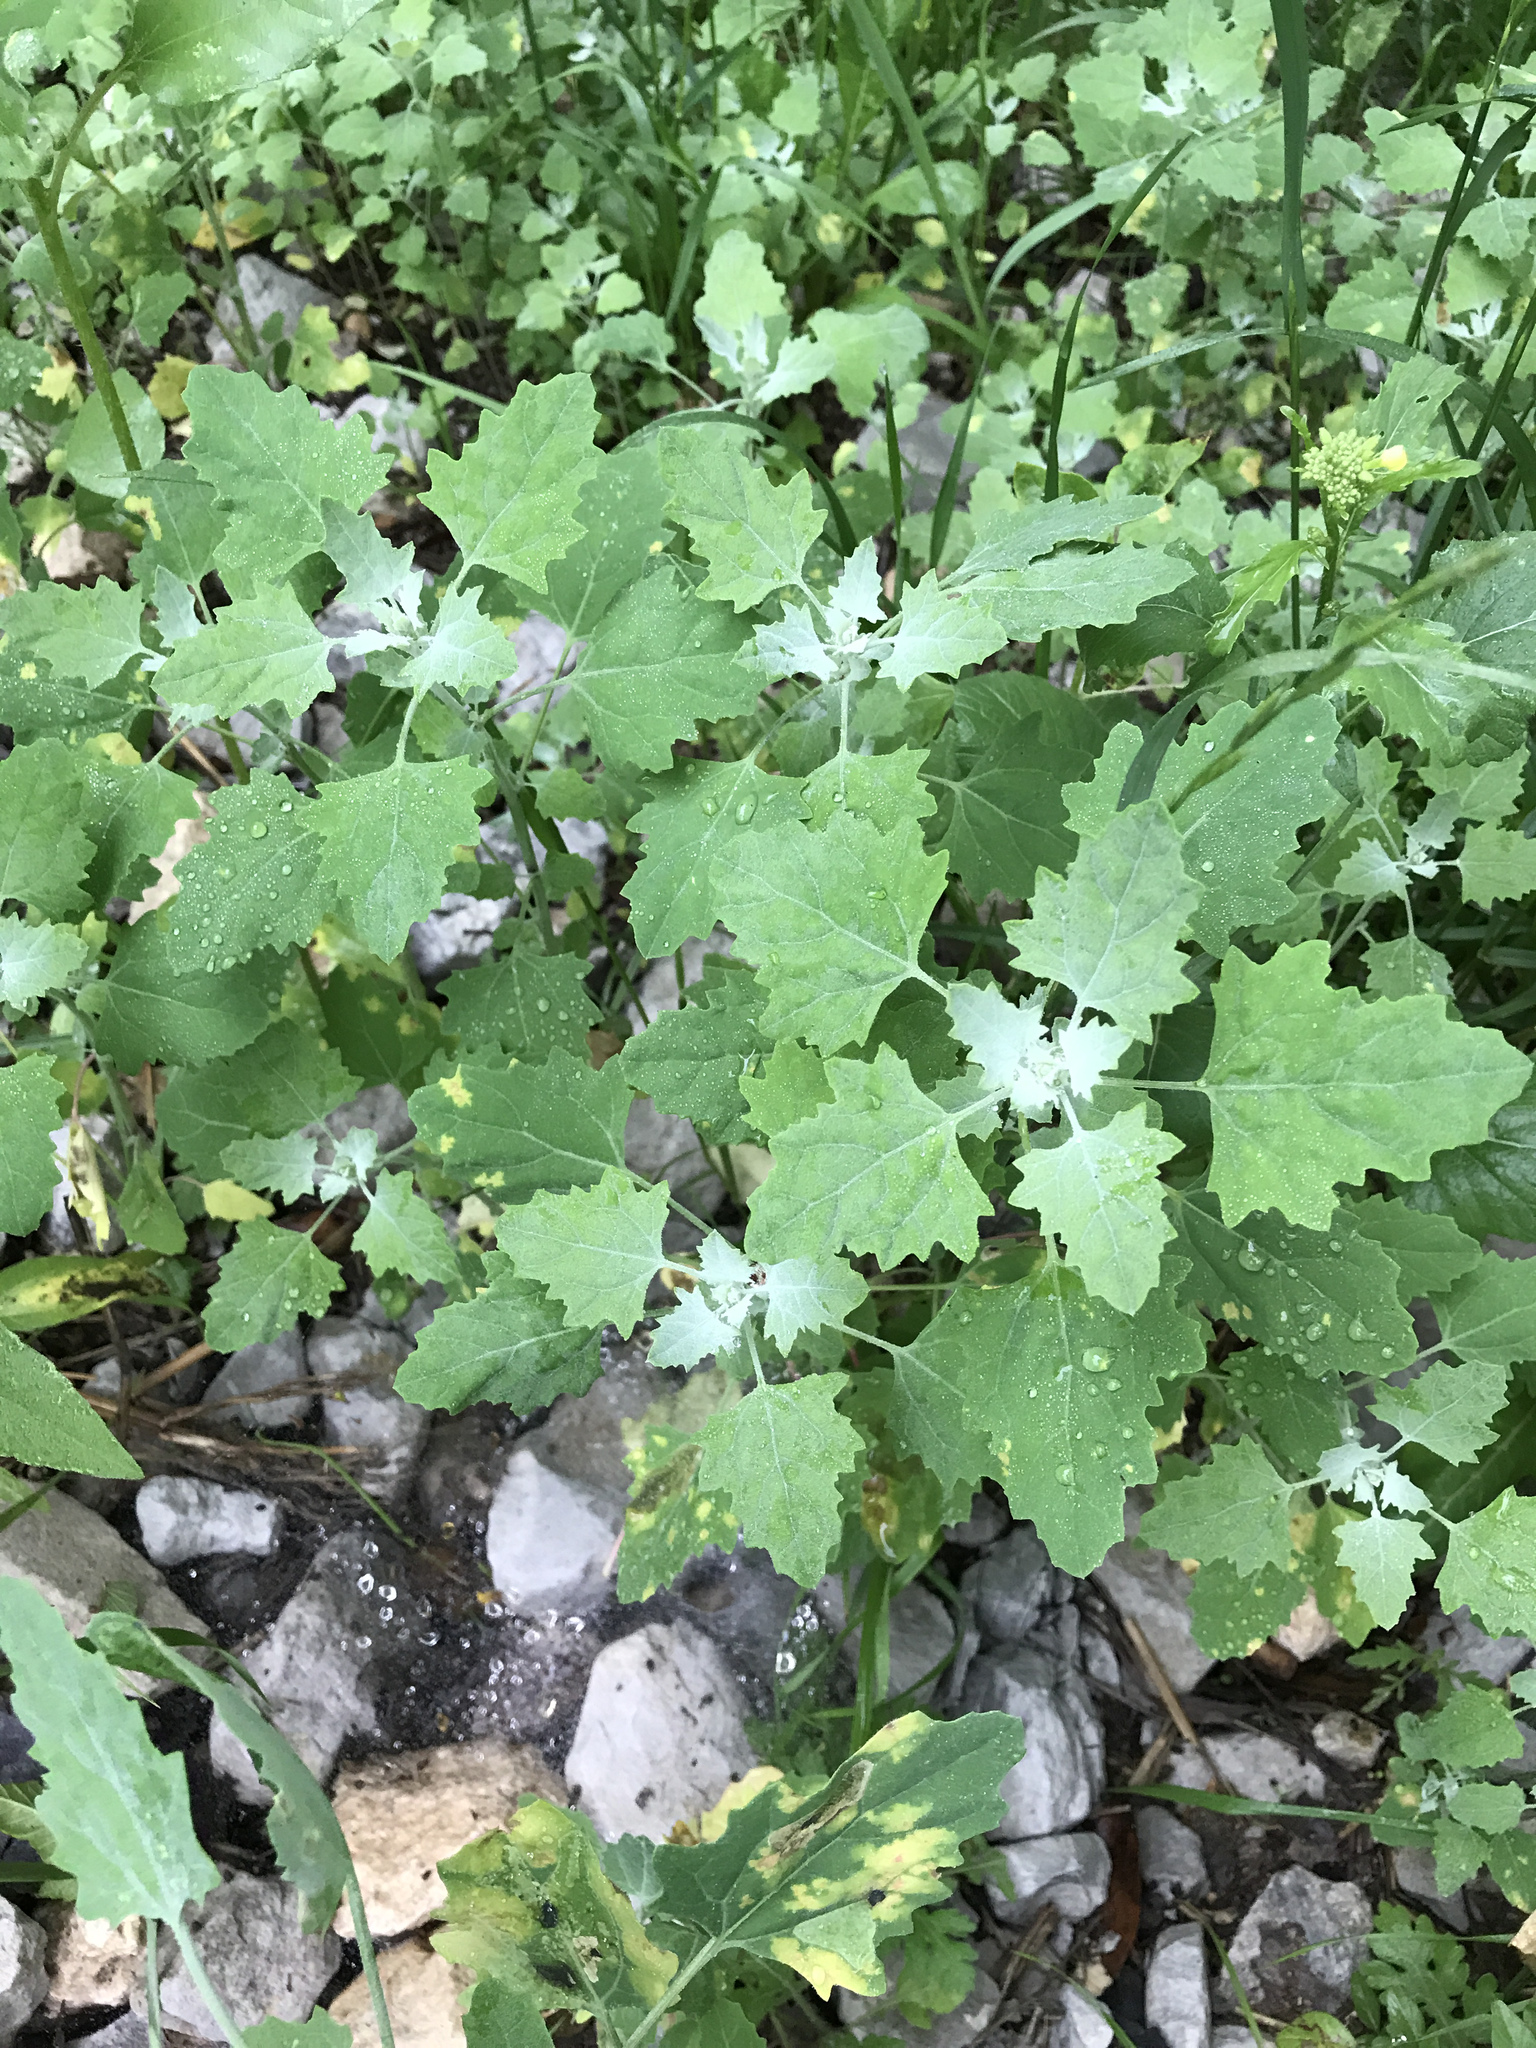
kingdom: Plantae
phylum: Tracheophyta
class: Magnoliopsida
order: Caryophyllales
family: Amaranthaceae
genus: Chenopodium
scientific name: Chenopodium album
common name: Fat-hen
